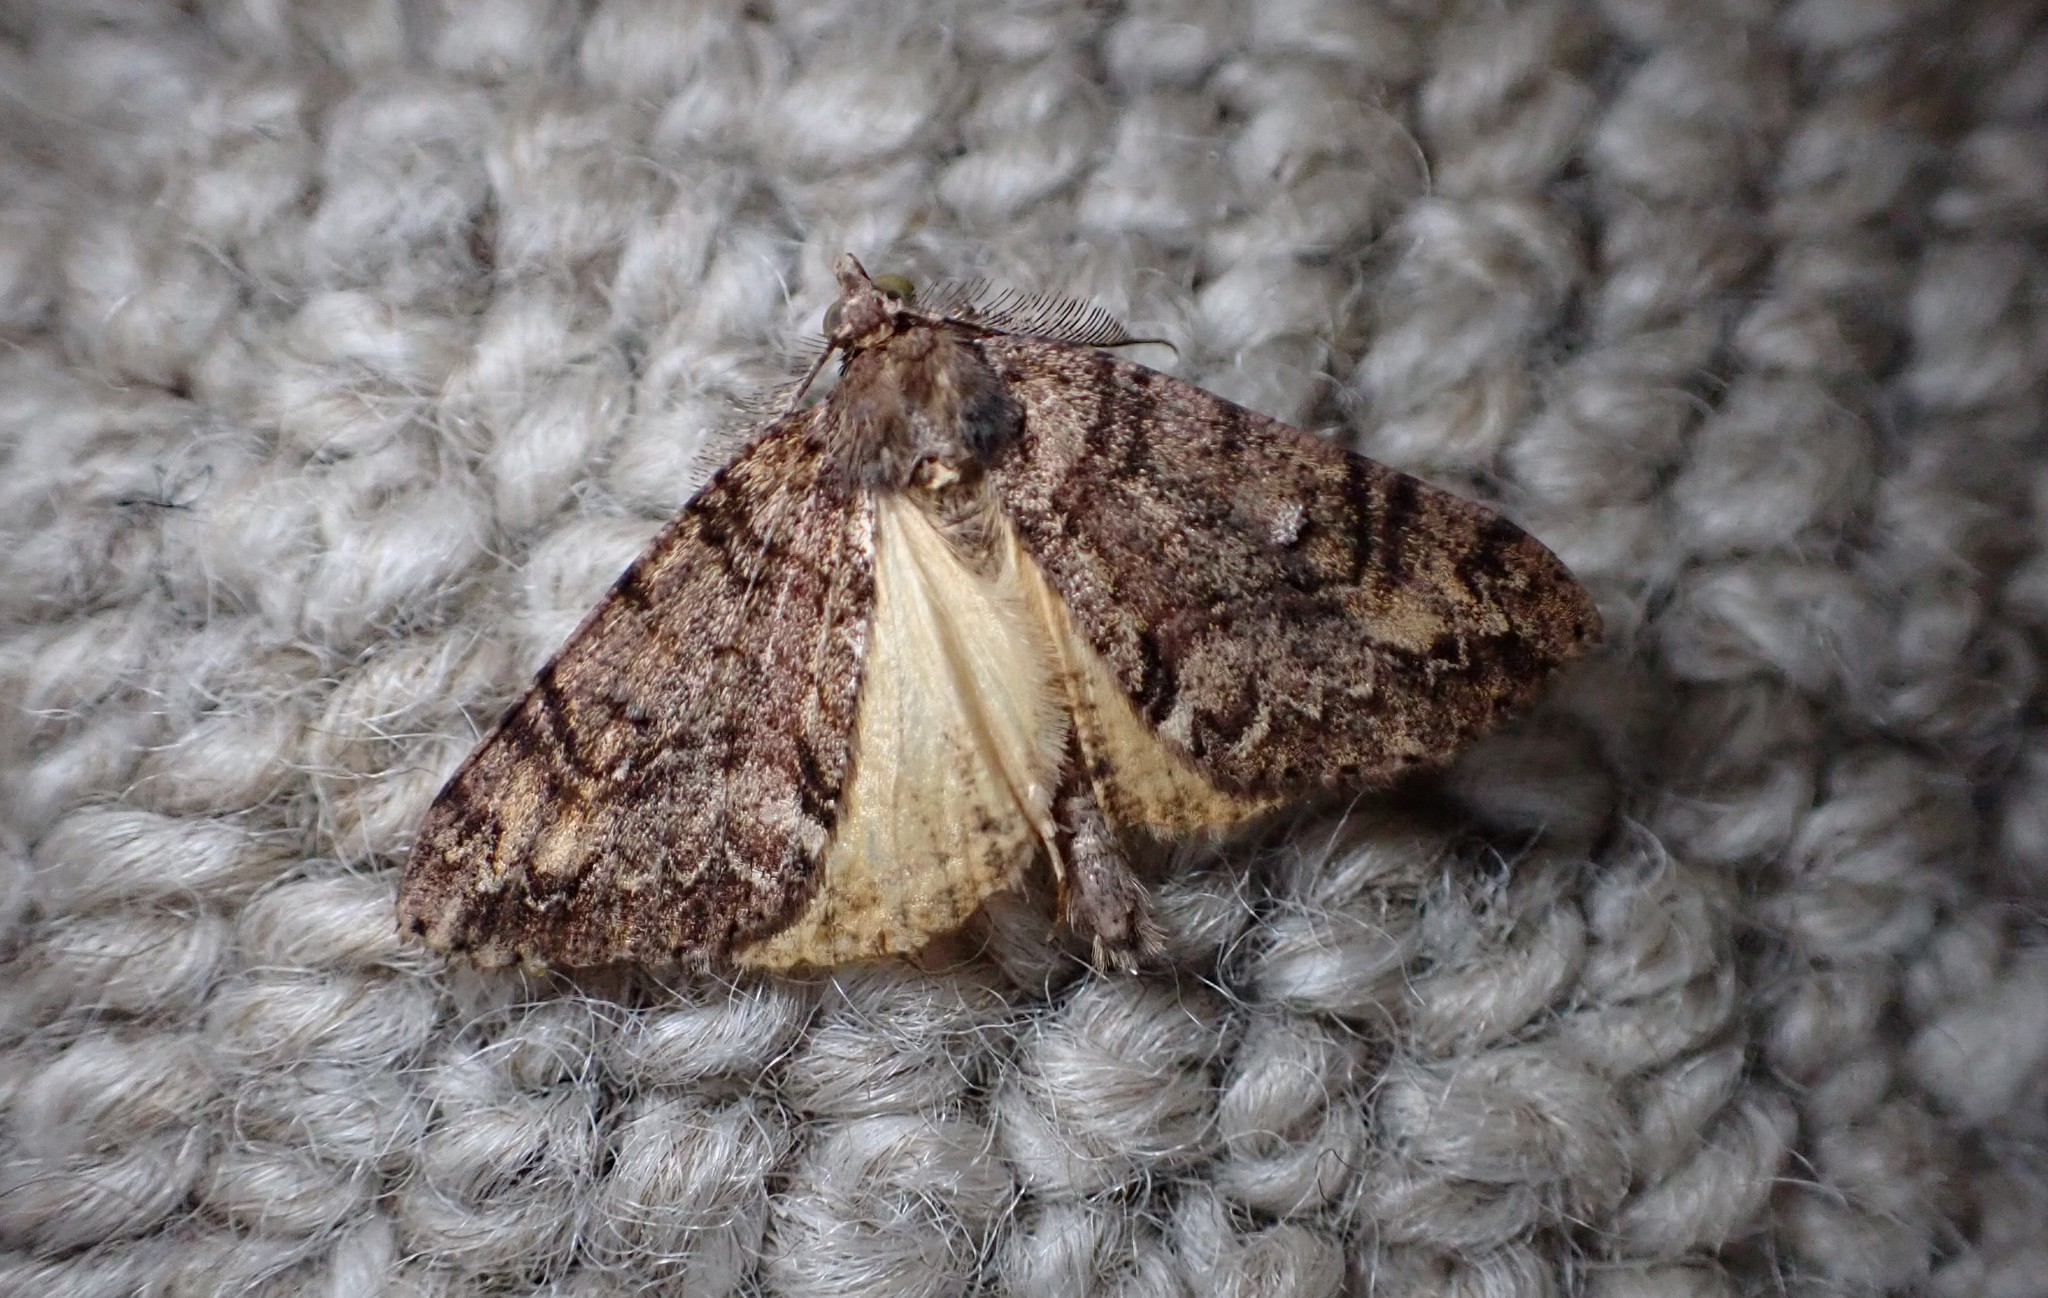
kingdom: Animalia
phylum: Arthropoda
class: Insecta
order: Lepidoptera
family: Geometridae
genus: Pseudocoremia
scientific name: Pseudocoremia suavis
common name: Common forest looper
